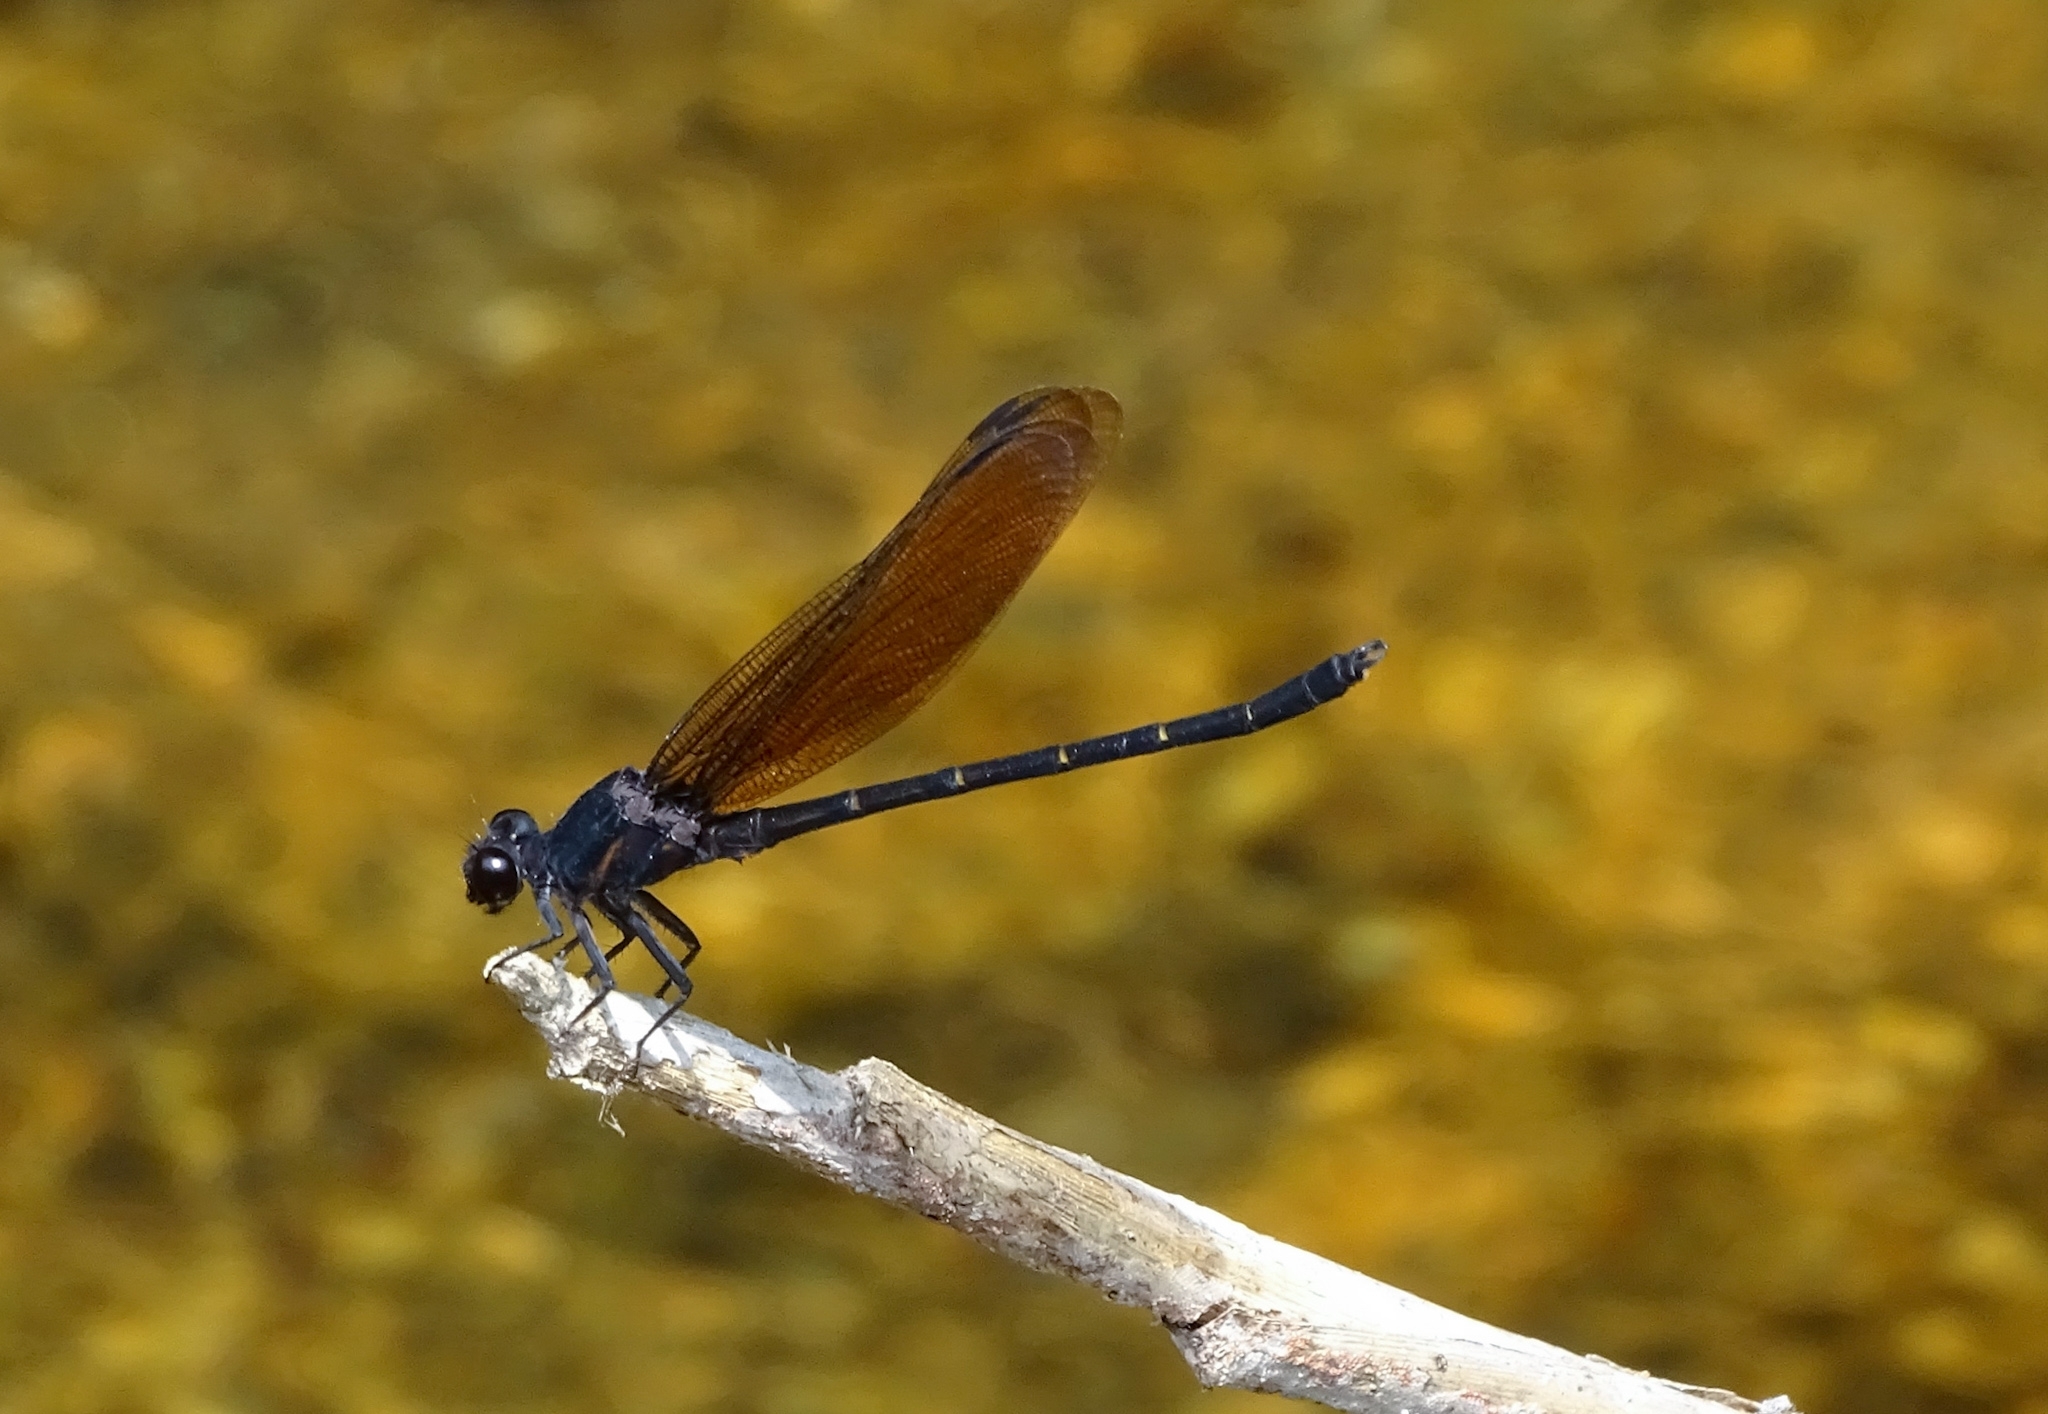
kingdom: Animalia
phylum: Arthropoda
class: Insecta
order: Odonata
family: Euphaeidae
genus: Dysphaea
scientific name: Dysphaea ethela
